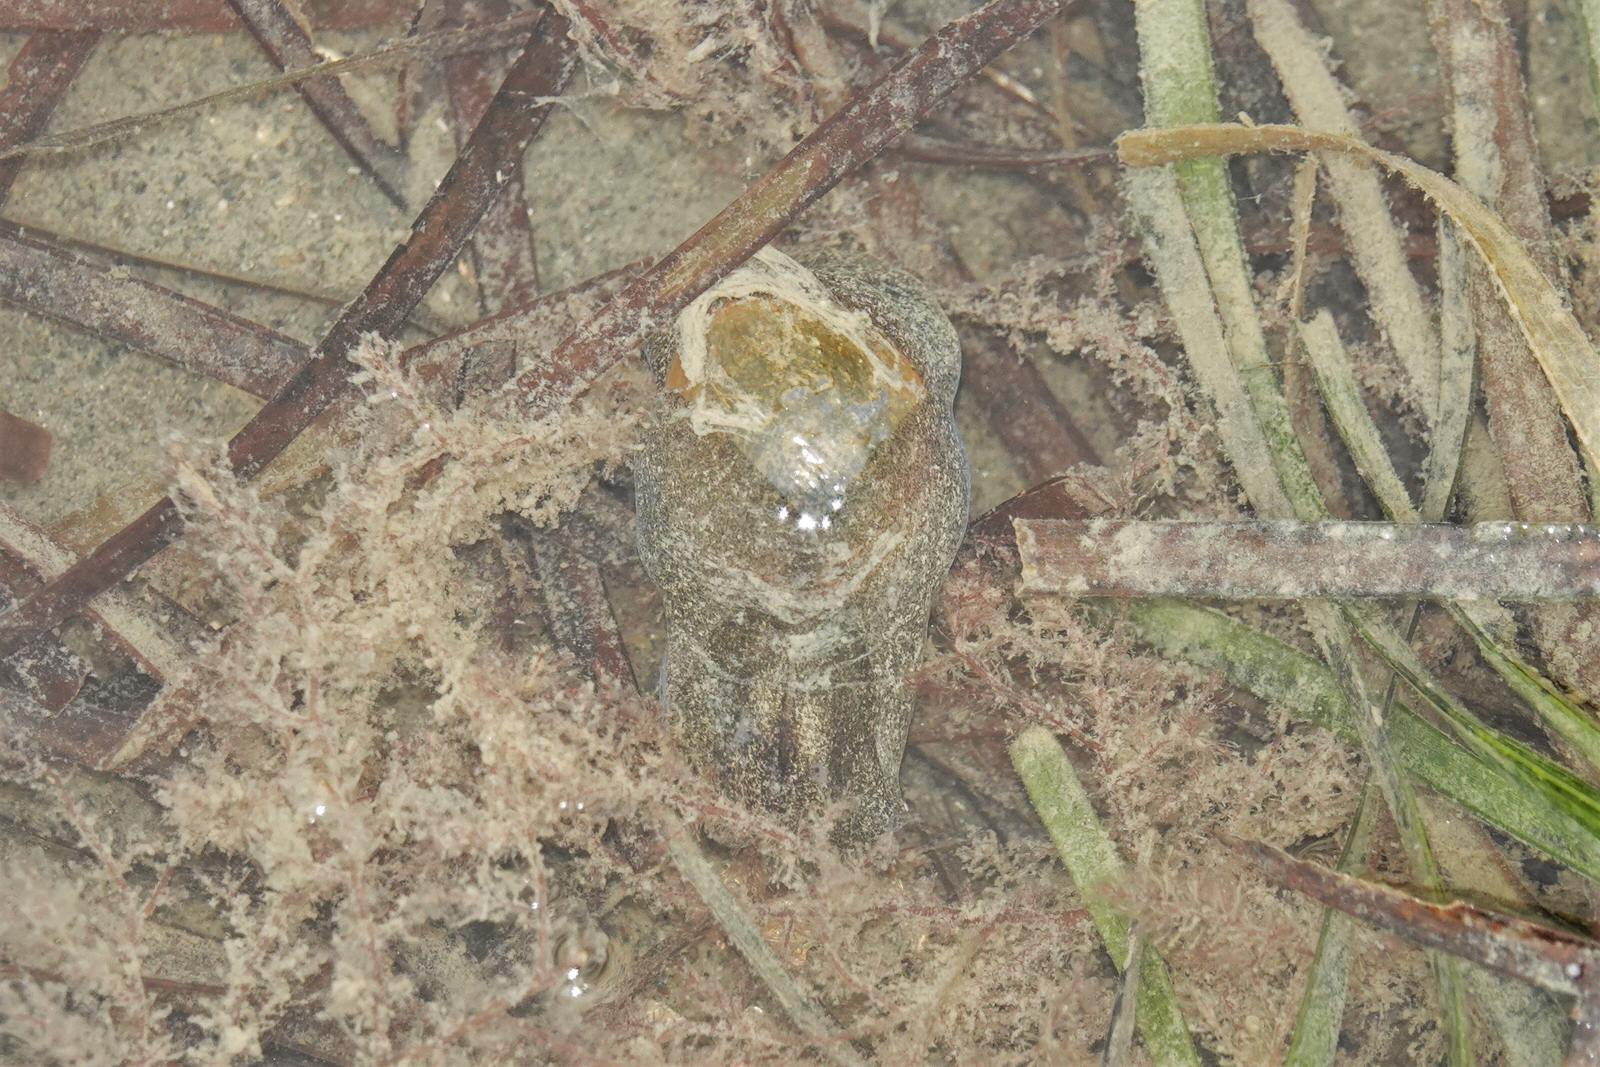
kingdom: Animalia
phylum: Mollusca
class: Gastropoda
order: Cephalaspidea
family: Haminoeidae
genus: Papawera
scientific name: Papawera zelandiae
